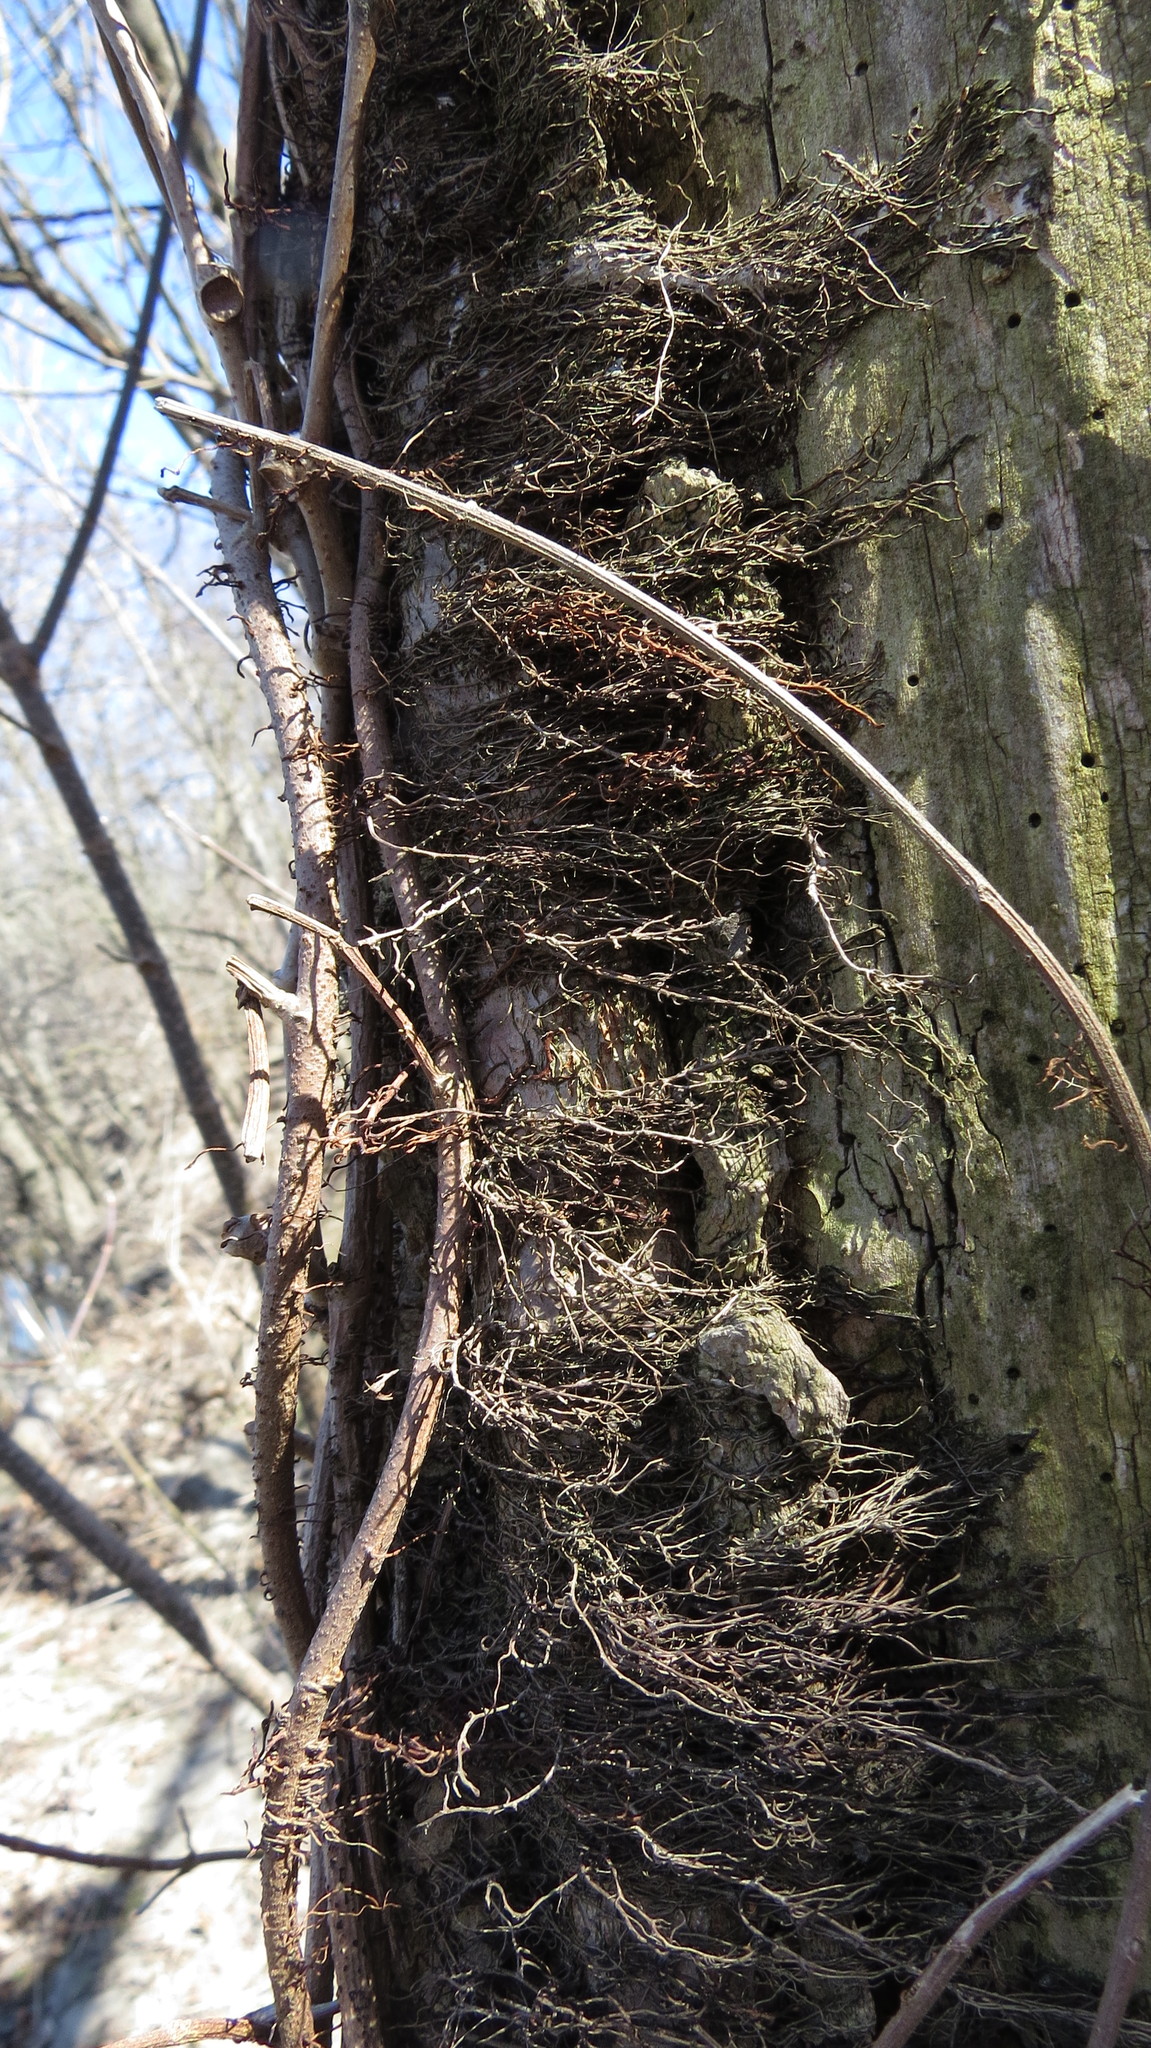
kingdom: Plantae
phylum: Tracheophyta
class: Magnoliopsida
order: Vitales
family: Vitaceae
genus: Parthenocissus
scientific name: Parthenocissus quinquefolia
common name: Virginia-creeper
